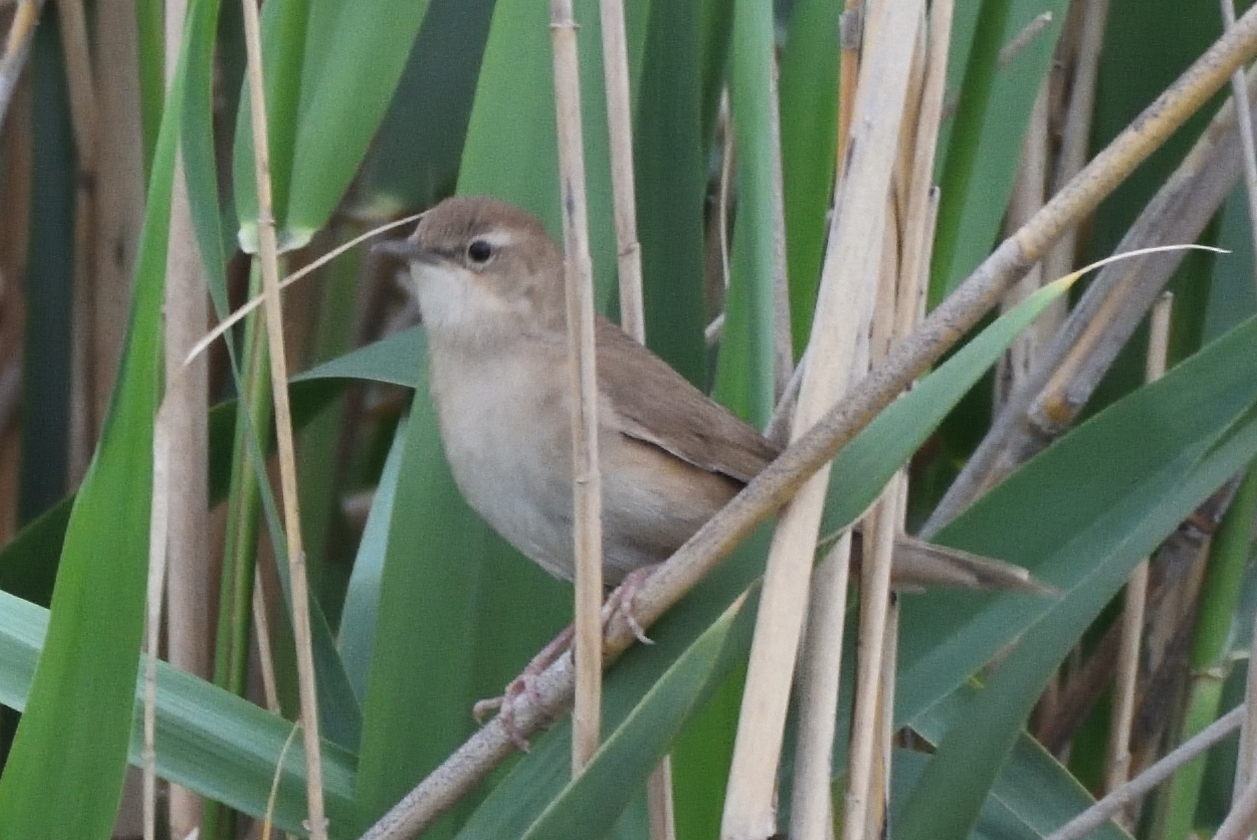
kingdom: Animalia
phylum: Chordata
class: Aves
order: Passeriformes
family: Acrocephalidae
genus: Acrocephalus
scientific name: Acrocephalus scirpaceus
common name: Eurasian reed warbler
